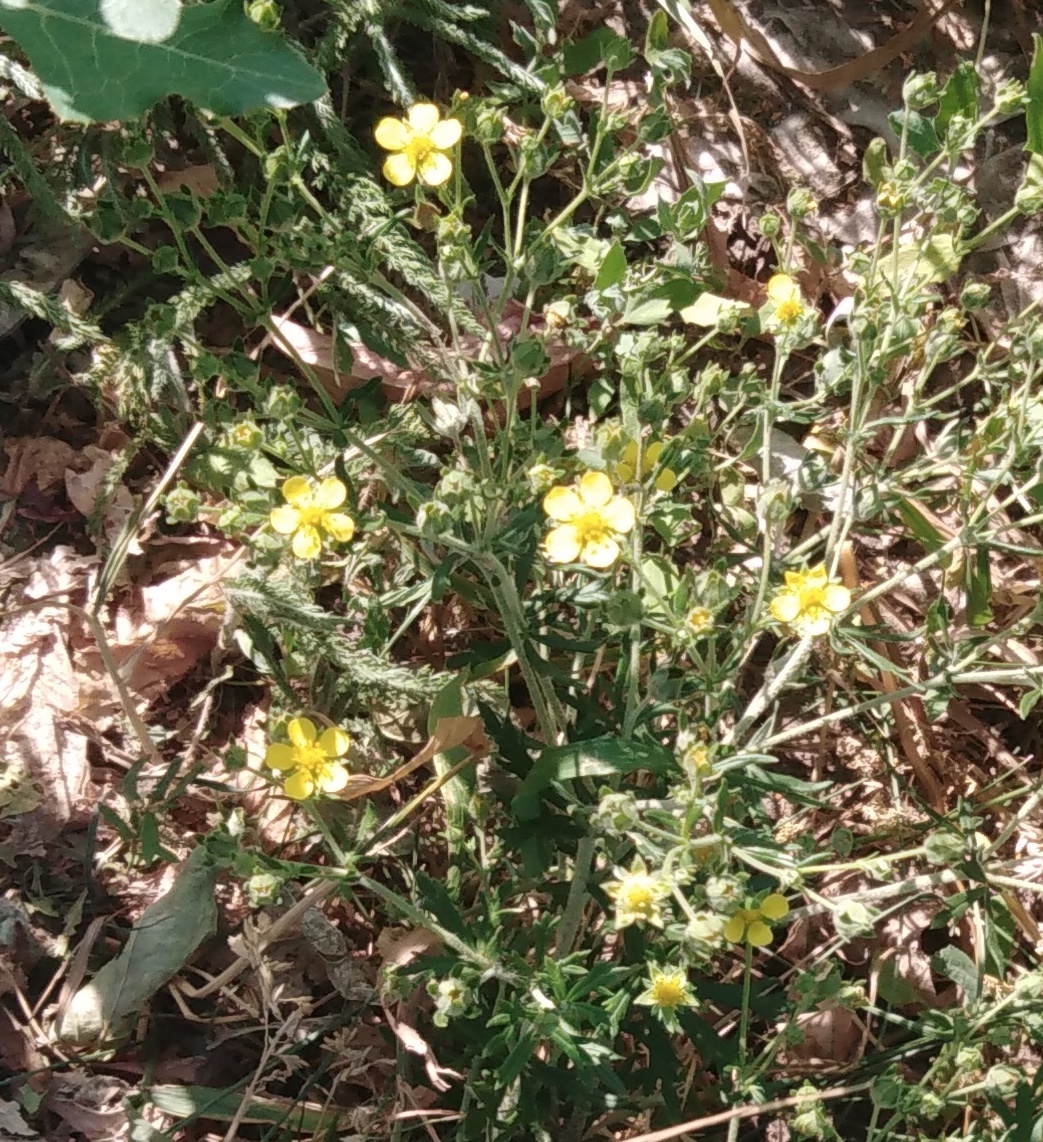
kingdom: Plantae
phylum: Tracheophyta
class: Magnoliopsida
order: Rosales
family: Rosaceae
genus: Potentilla
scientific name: Potentilla argentea
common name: Hoary cinquefoil
